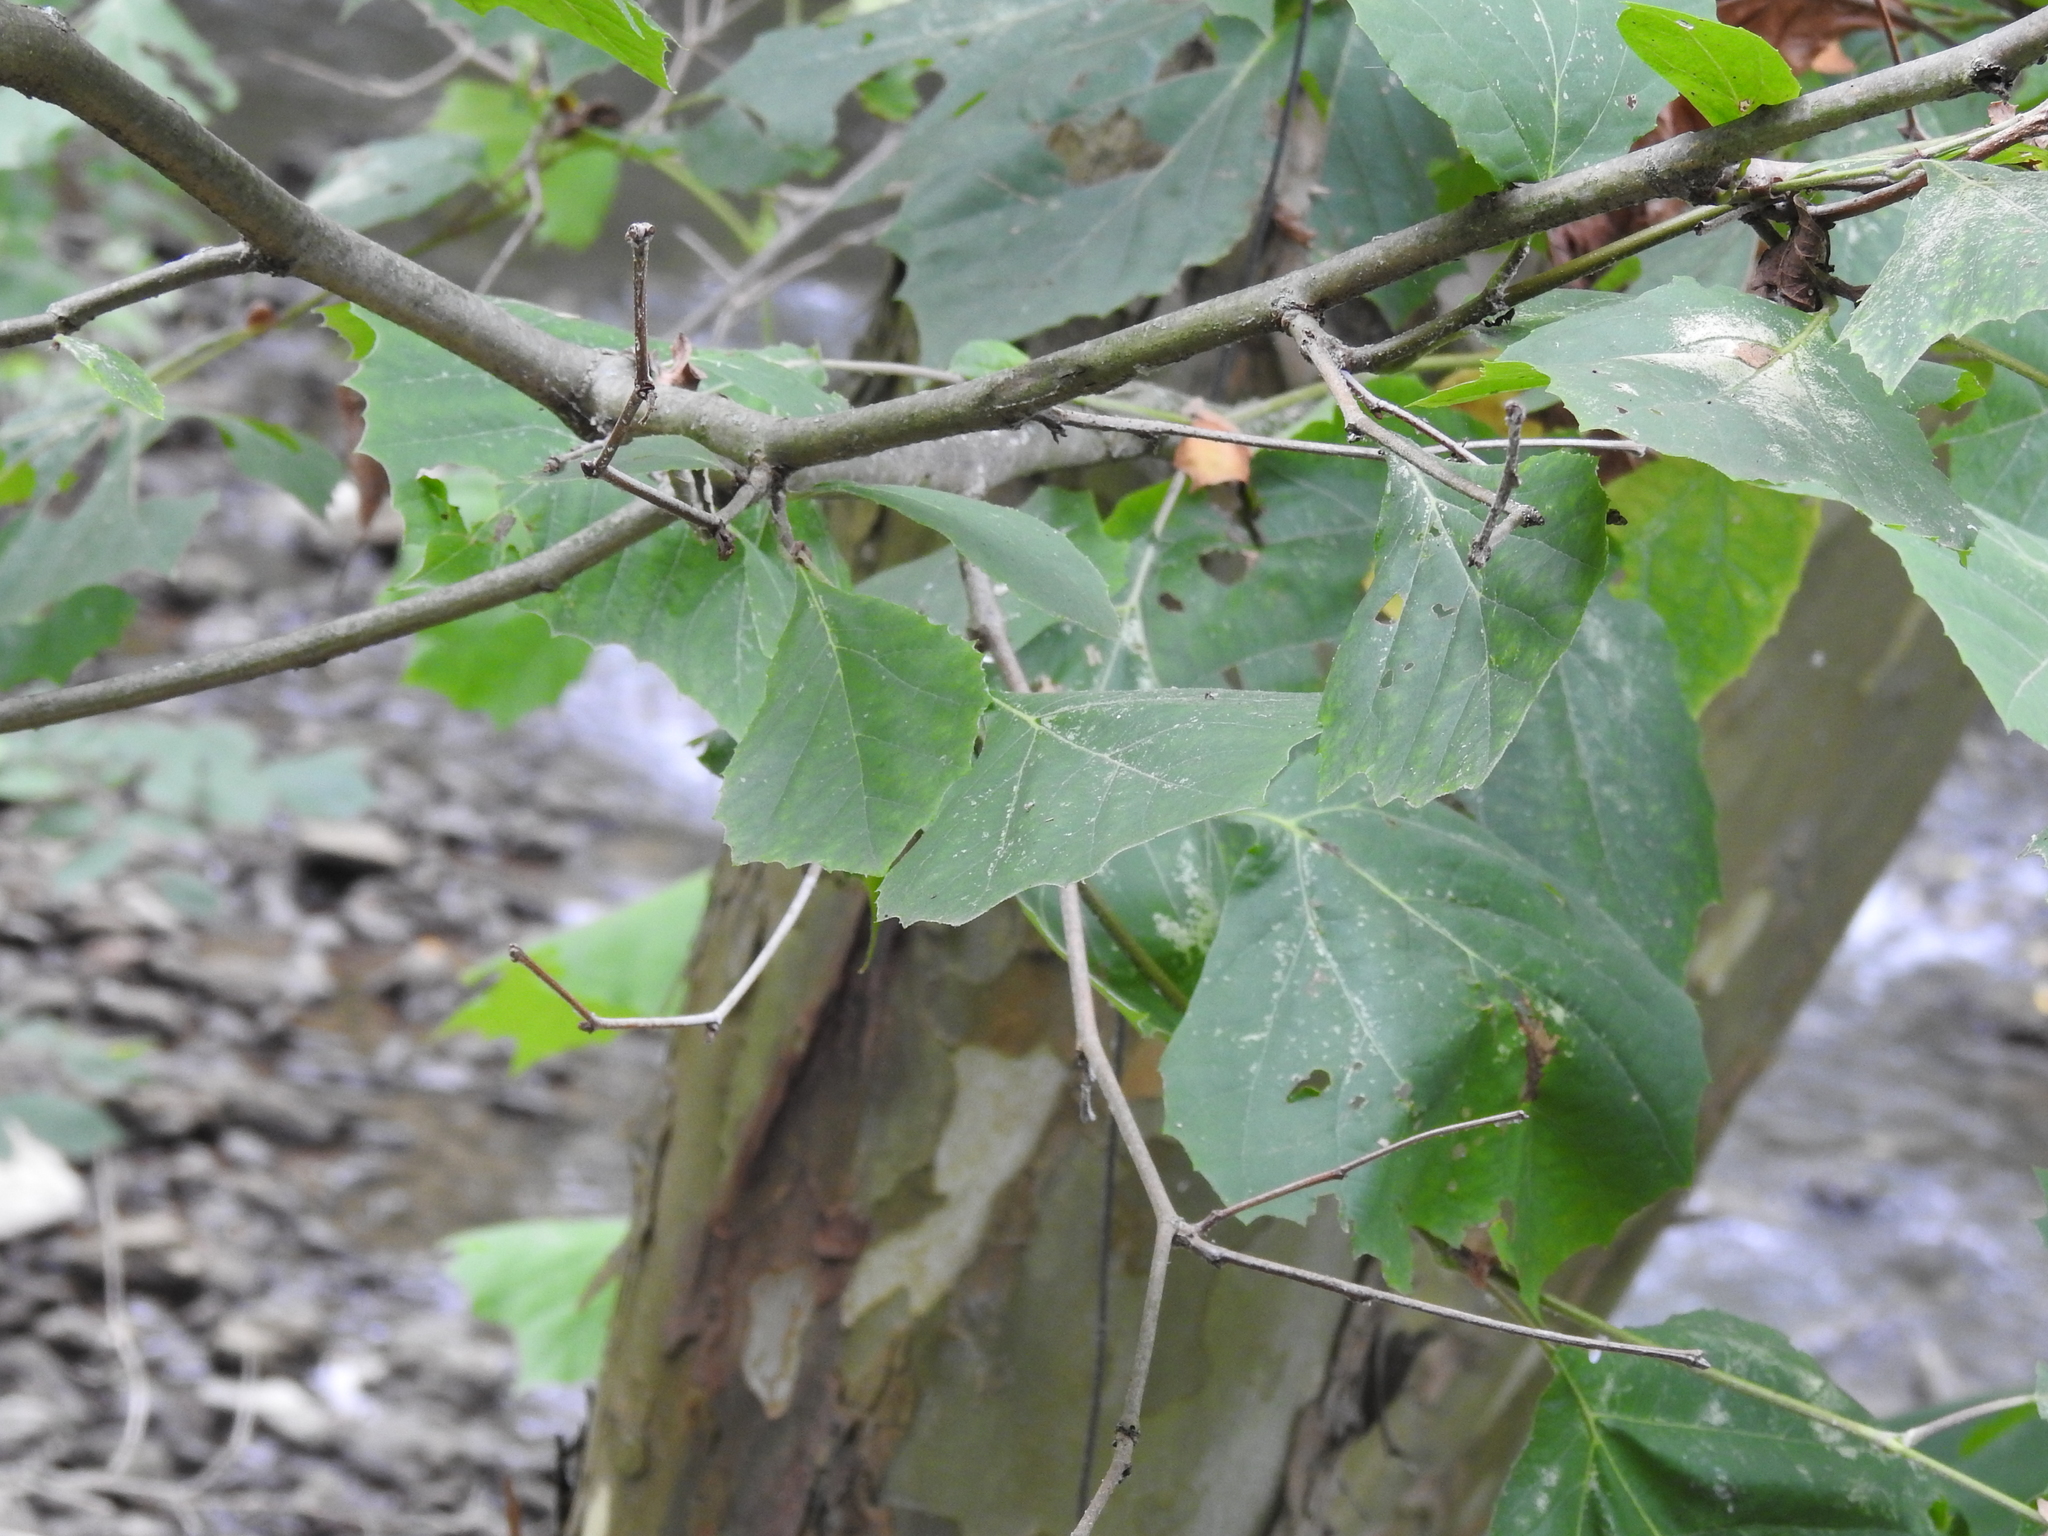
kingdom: Plantae
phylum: Tracheophyta
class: Magnoliopsida
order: Proteales
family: Platanaceae
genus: Platanus
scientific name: Platanus occidentalis
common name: American sycamore
